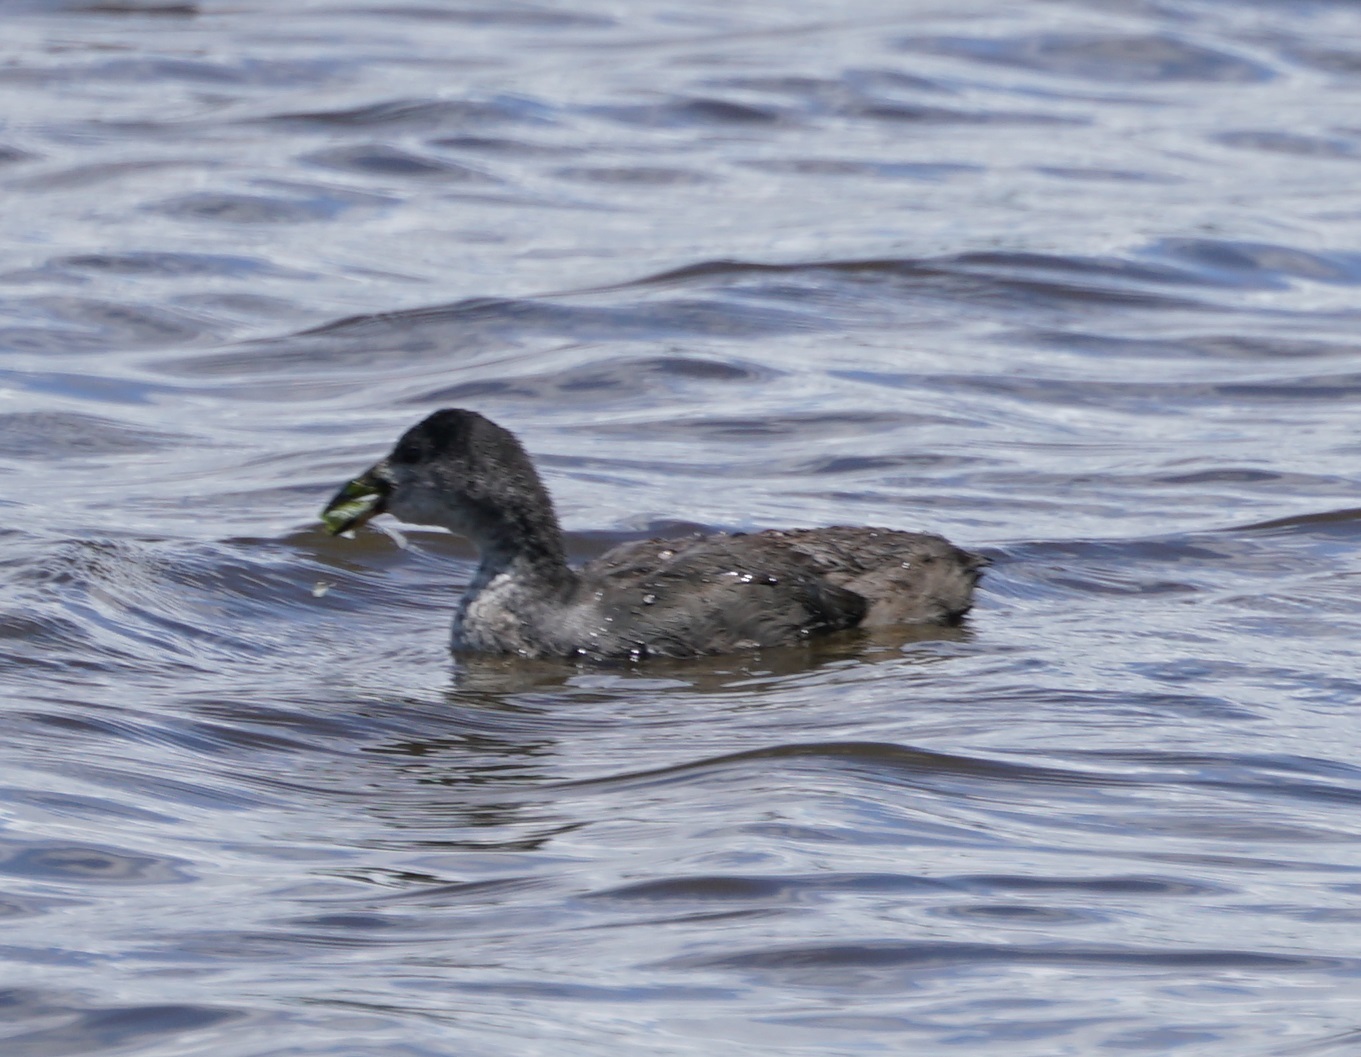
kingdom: Animalia
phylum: Chordata
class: Aves
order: Gruiformes
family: Rallidae
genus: Fulica
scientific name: Fulica atra
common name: Eurasian coot
